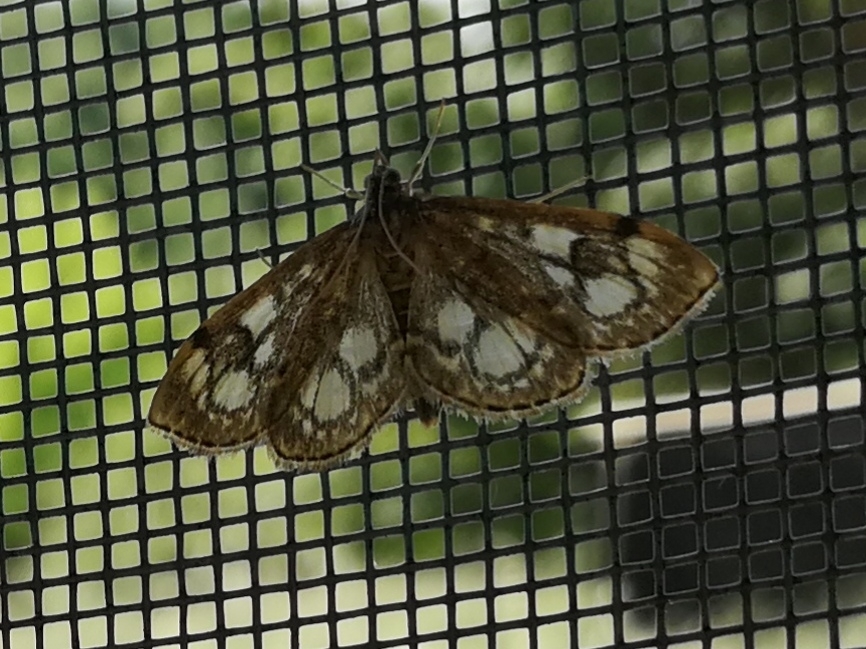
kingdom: Animalia
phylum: Arthropoda
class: Insecta
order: Lepidoptera
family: Crambidae
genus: Anania
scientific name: Anania coronata
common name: Elder pearl
